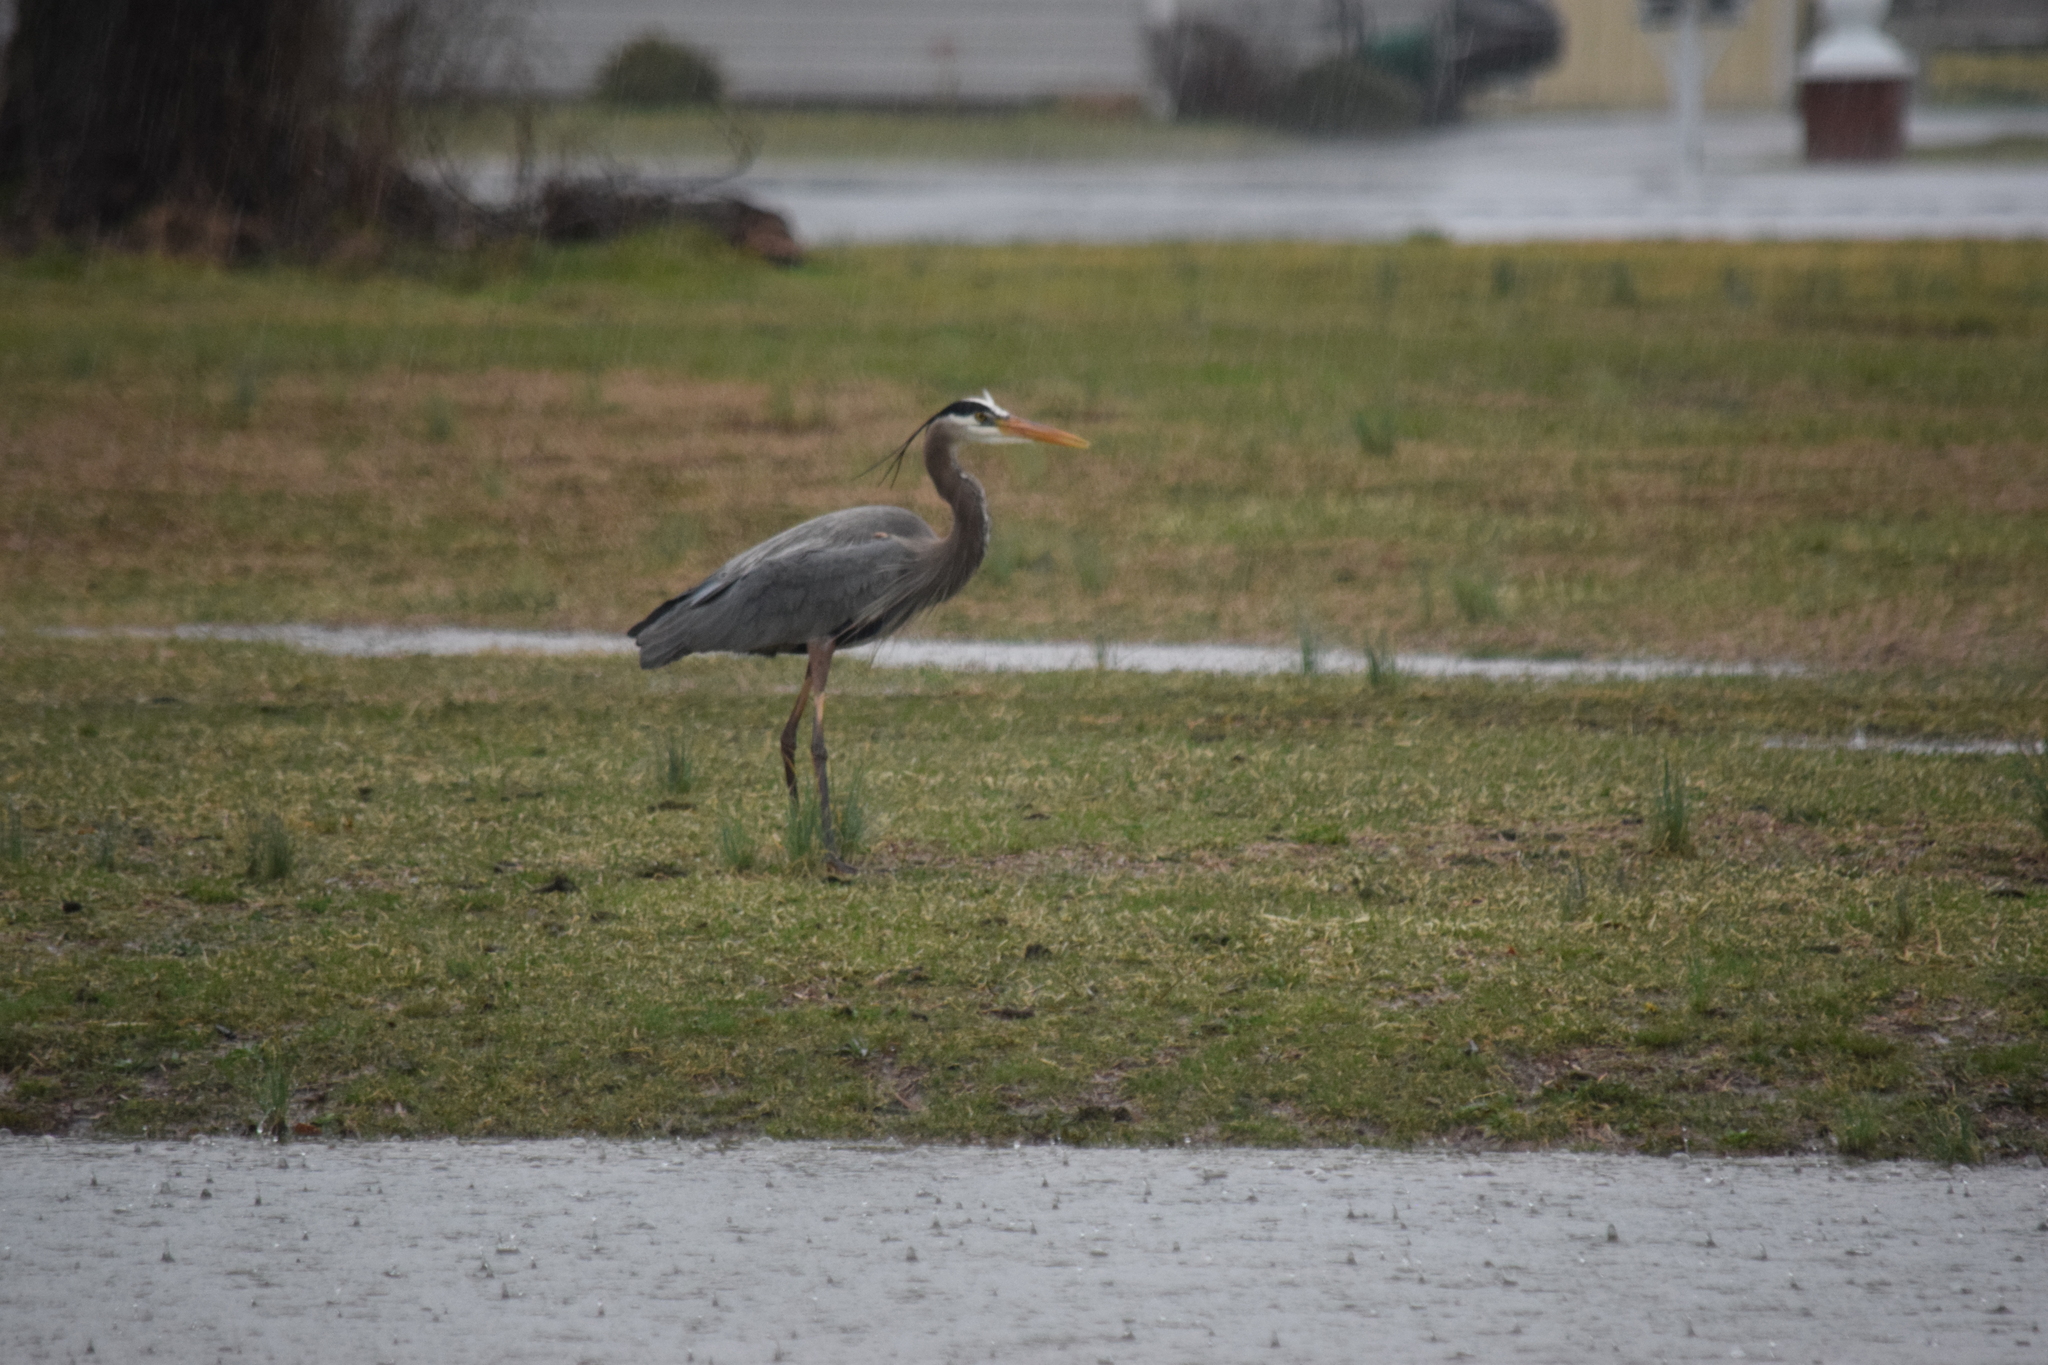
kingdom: Animalia
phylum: Chordata
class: Aves
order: Pelecaniformes
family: Ardeidae
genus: Ardea
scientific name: Ardea herodias
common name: Great blue heron
